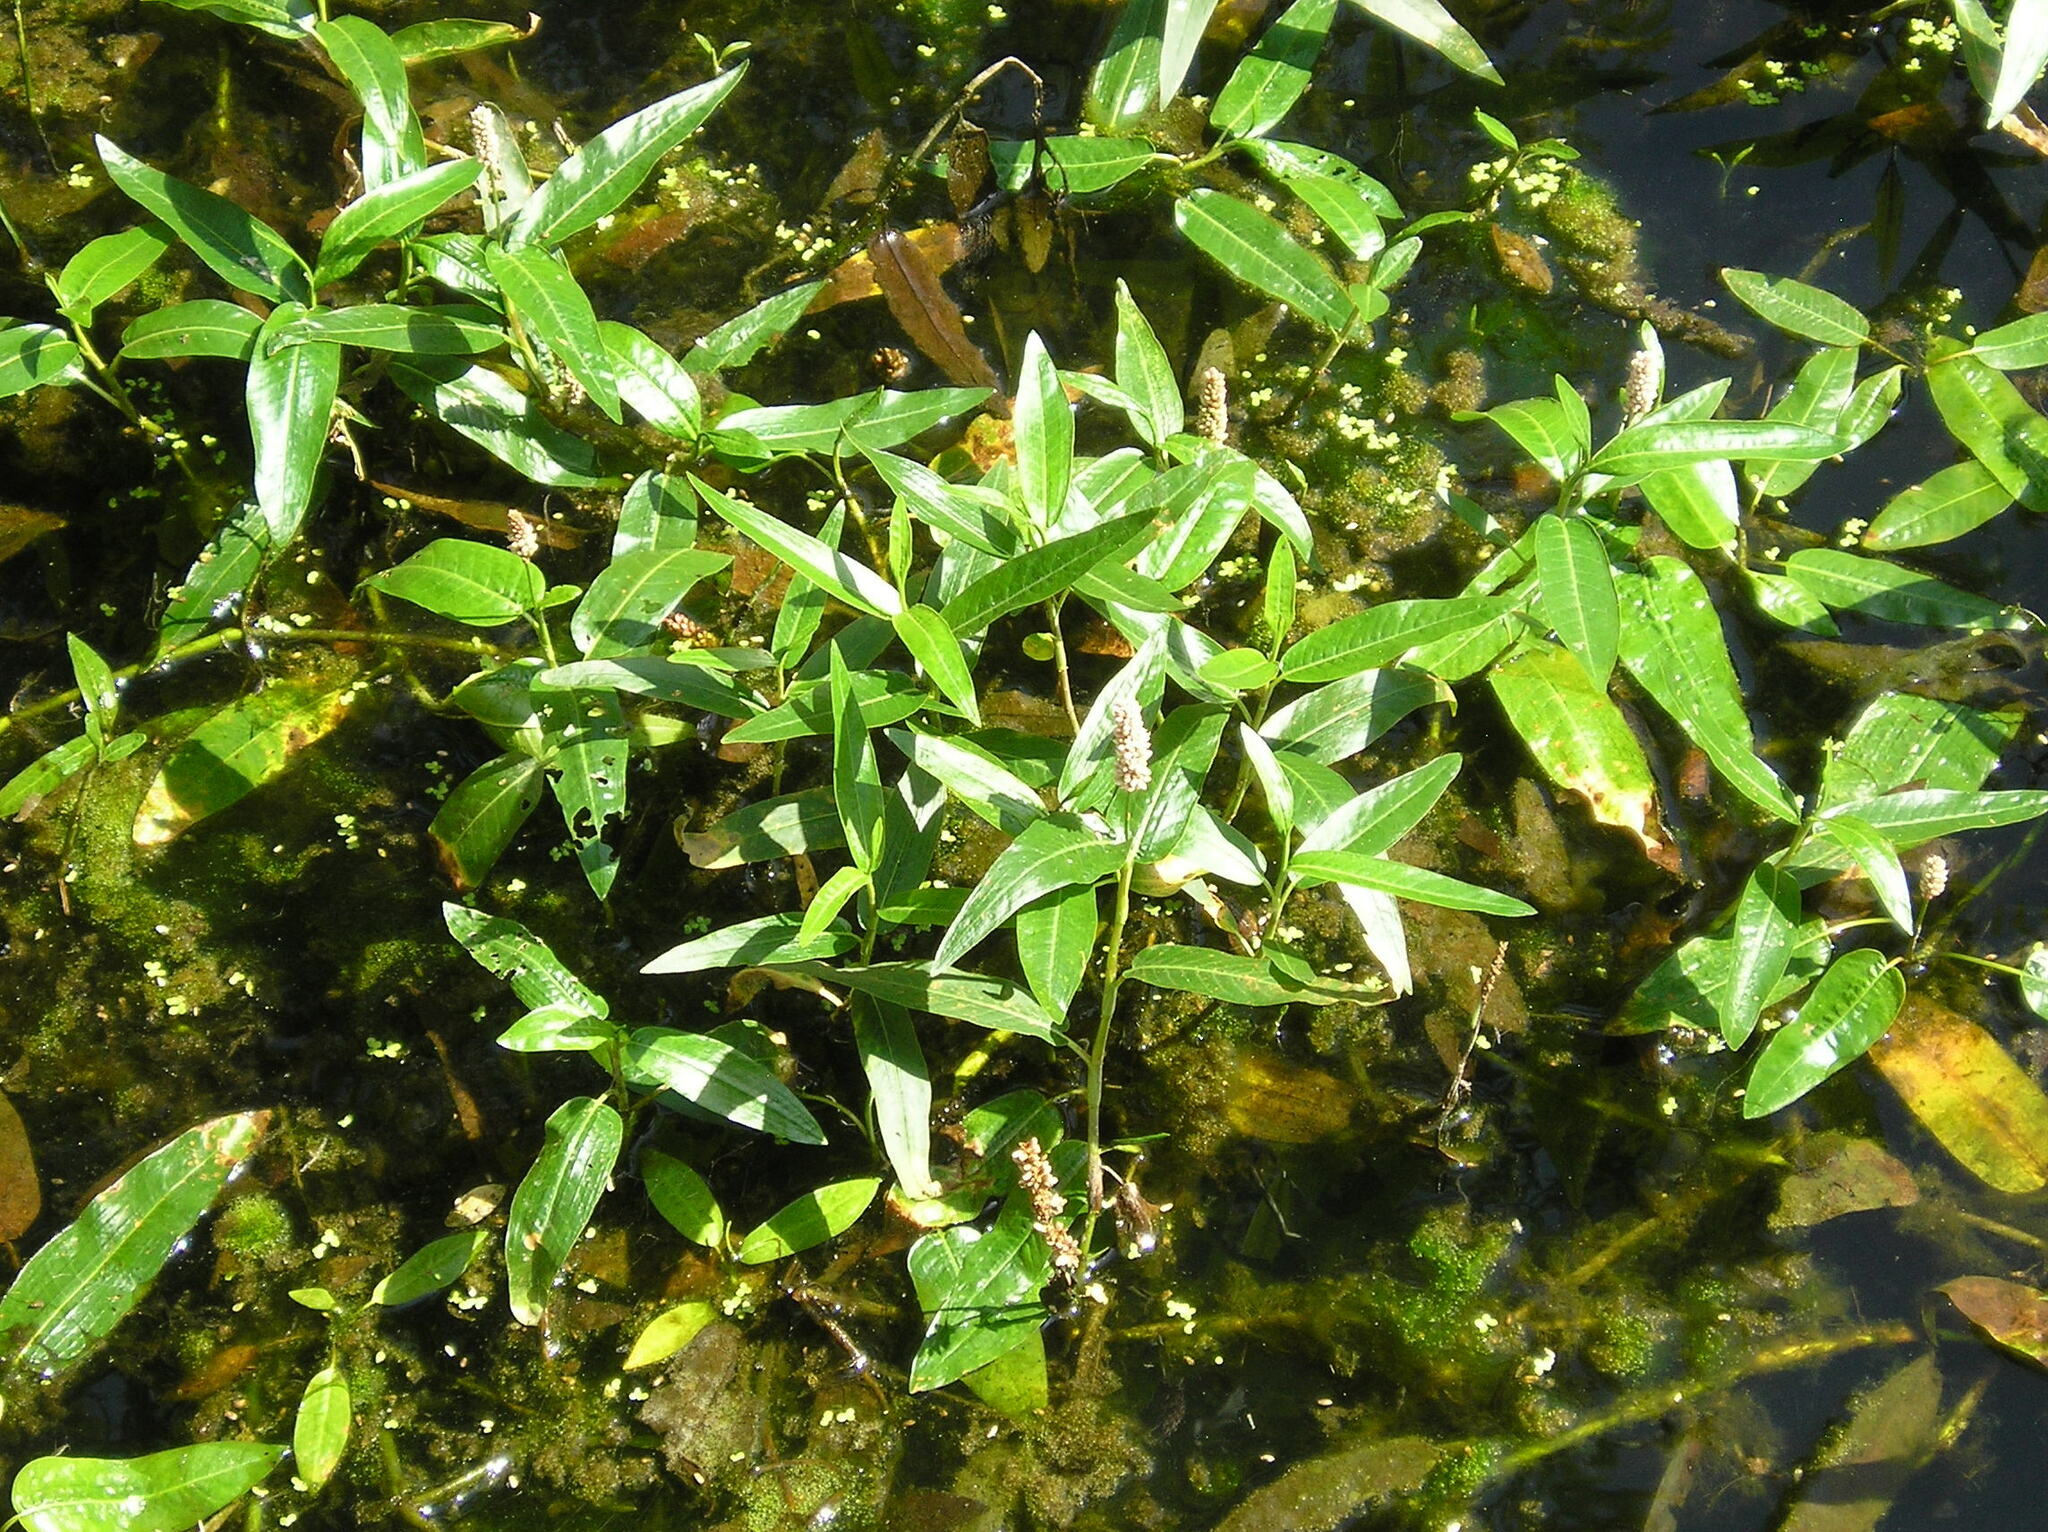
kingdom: Plantae
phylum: Tracheophyta
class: Magnoliopsida
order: Caryophyllales
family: Polygonaceae
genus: Persicaria
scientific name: Persicaria amphibia
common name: Amphibious bistort
